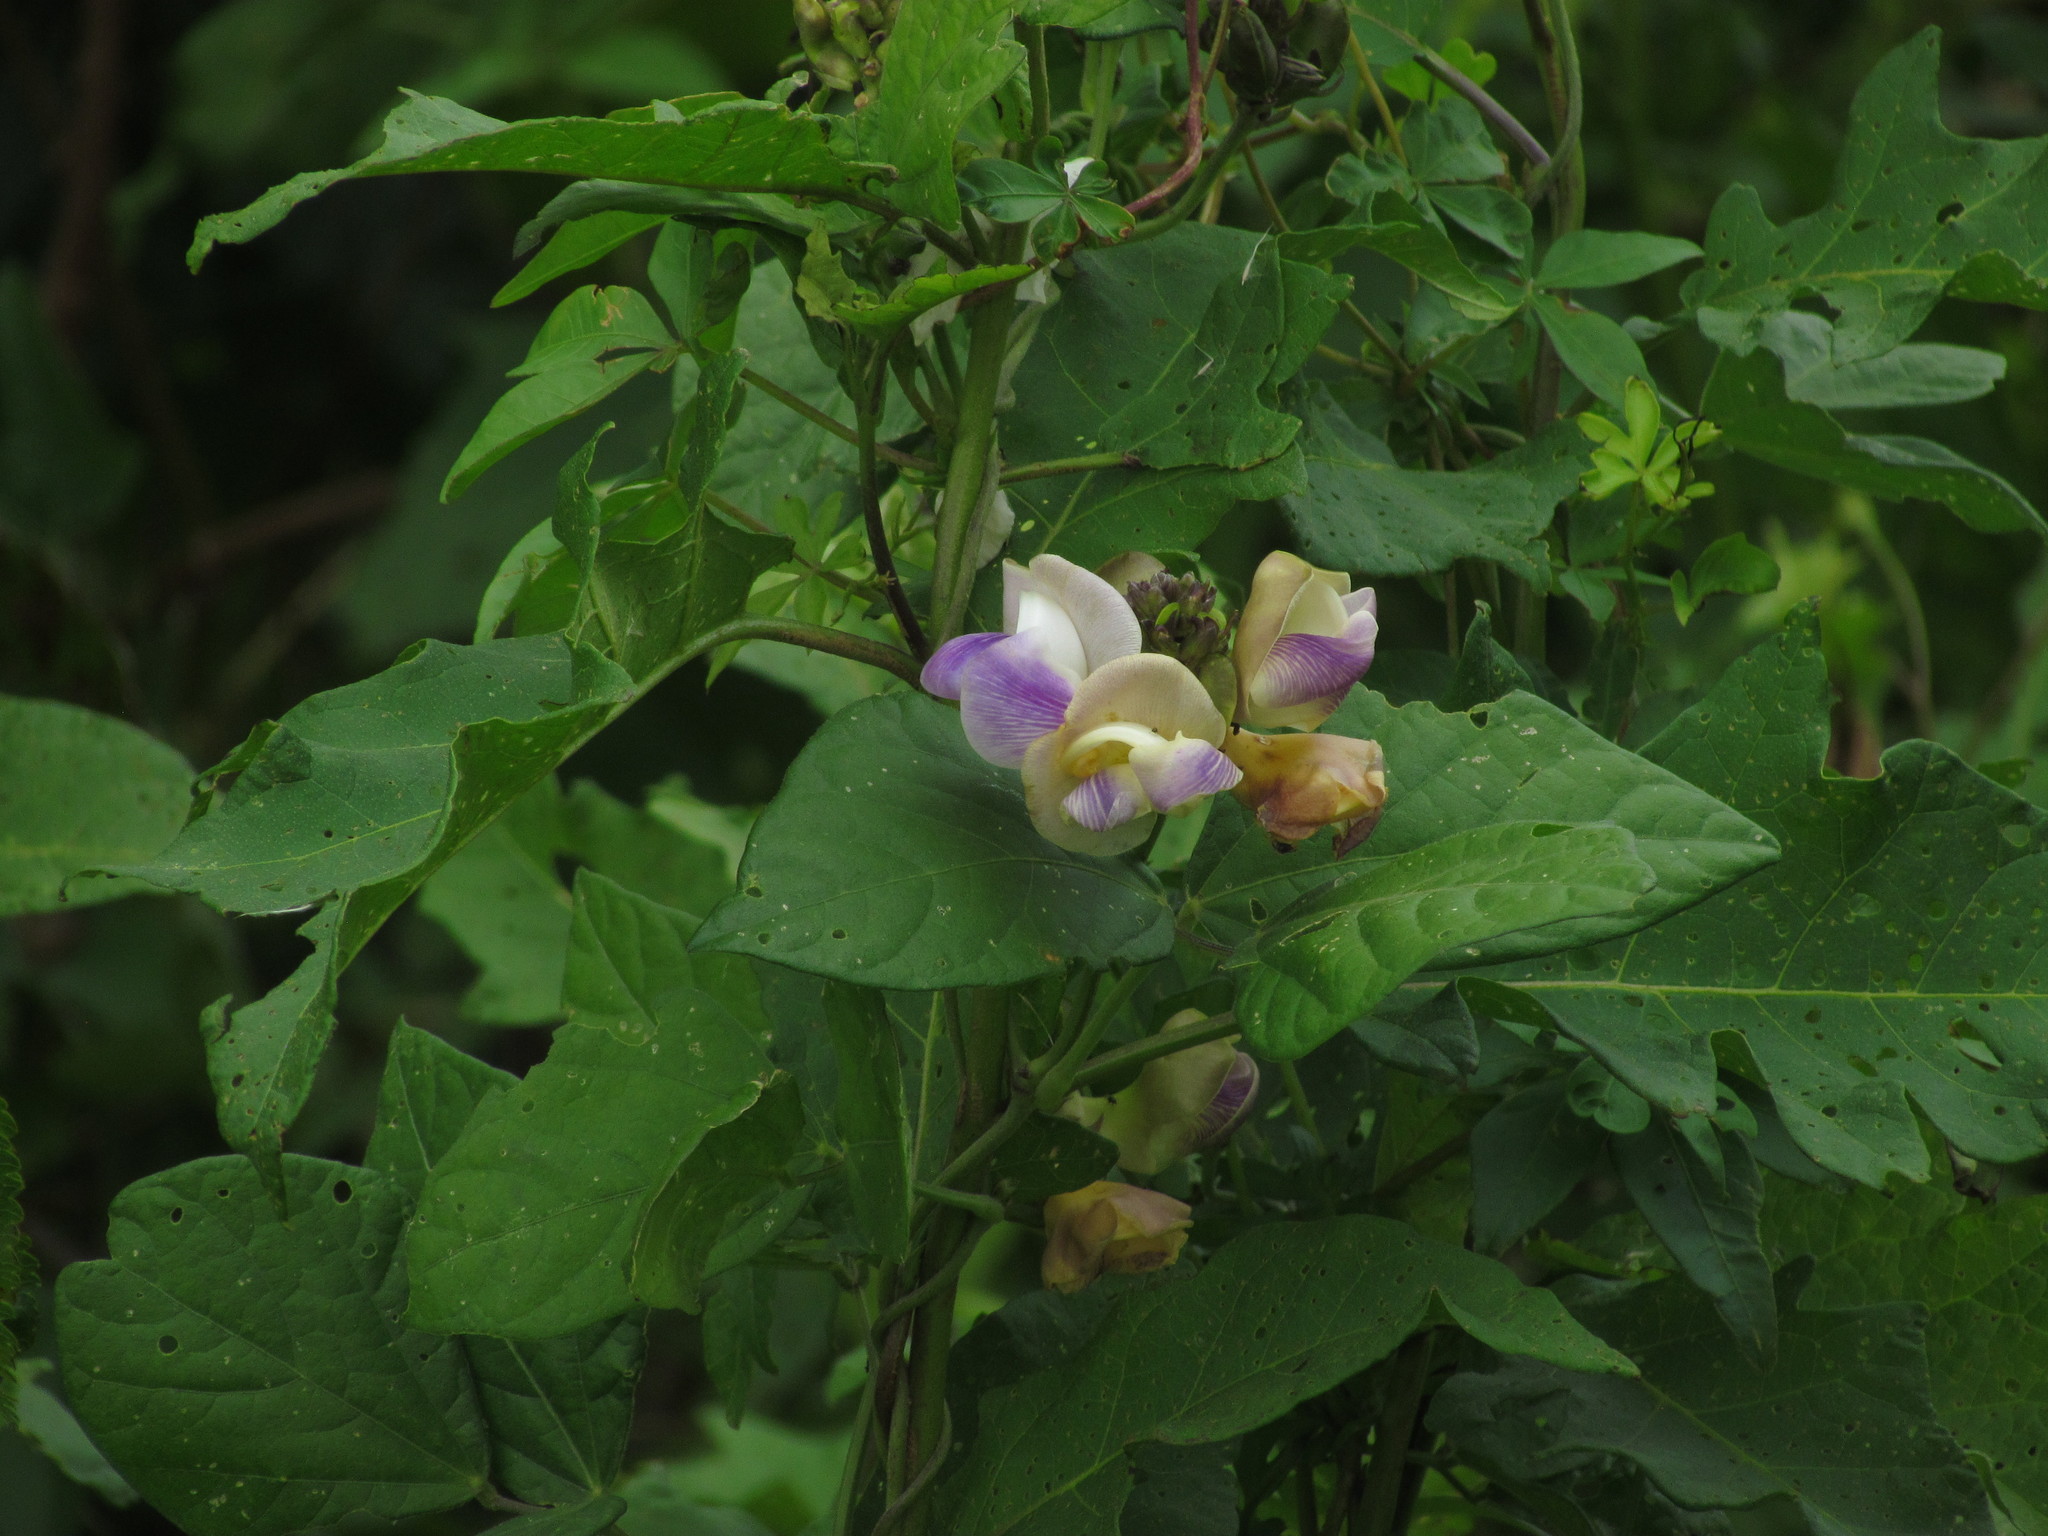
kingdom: Plantae
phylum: Tracheophyta
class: Magnoliopsida
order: Fabales
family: Fabaceae
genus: Leptospron
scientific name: Leptospron adenanthum
